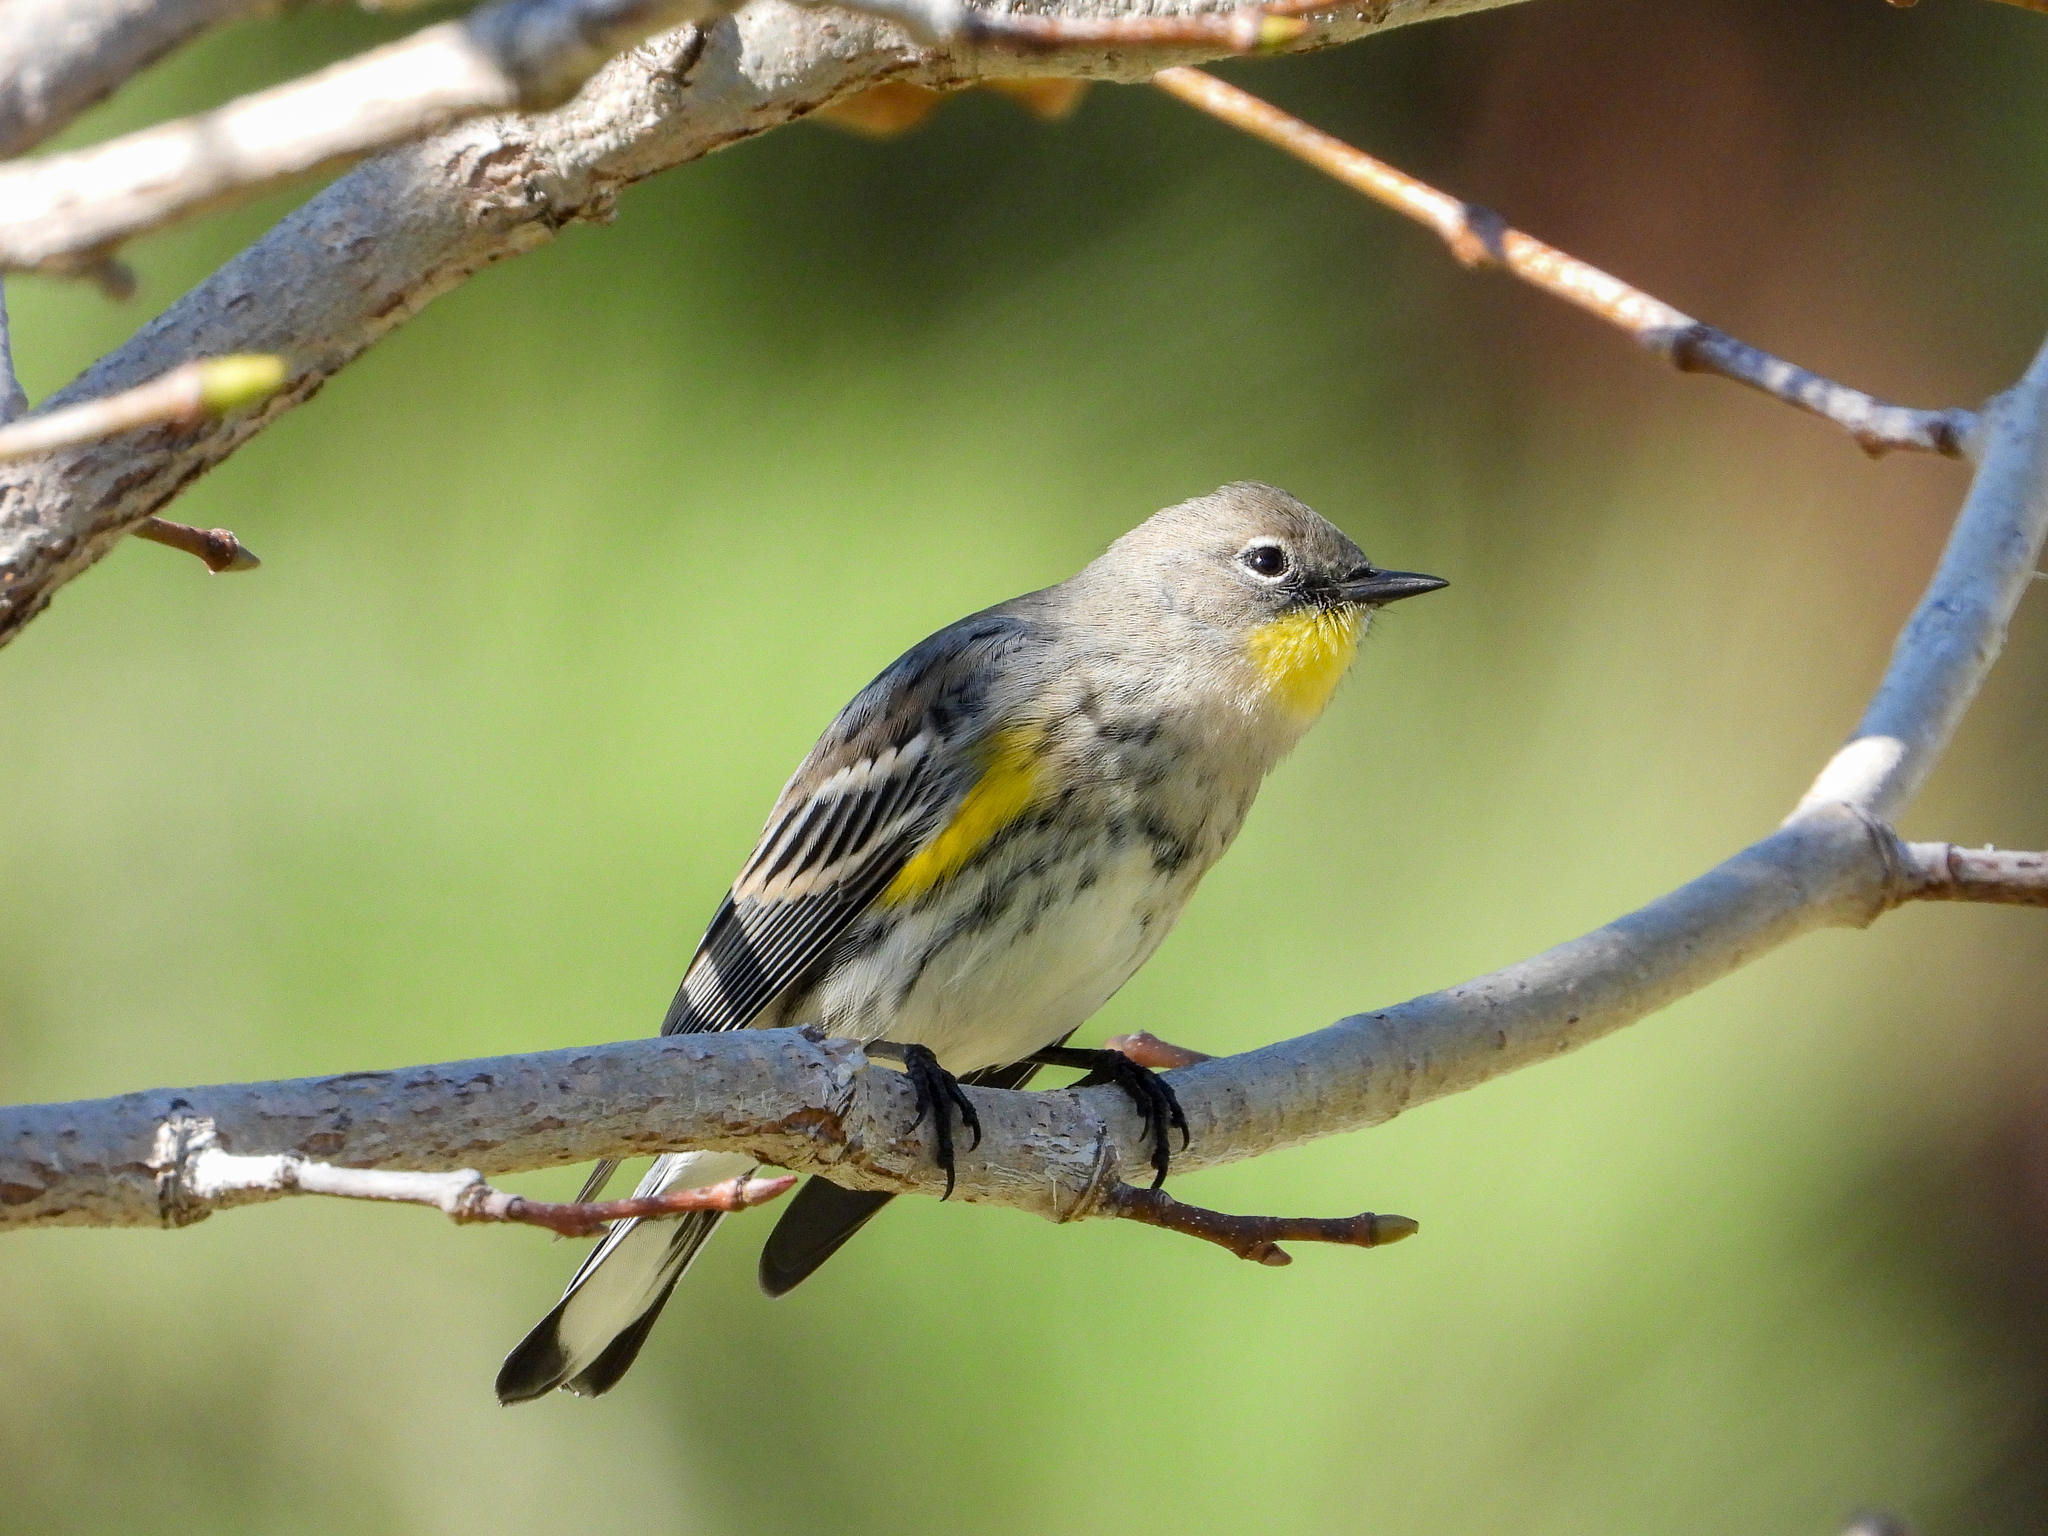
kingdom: Animalia
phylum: Chordata
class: Aves
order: Passeriformes
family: Parulidae
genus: Setophaga
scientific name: Setophaga coronata
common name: Myrtle warbler
